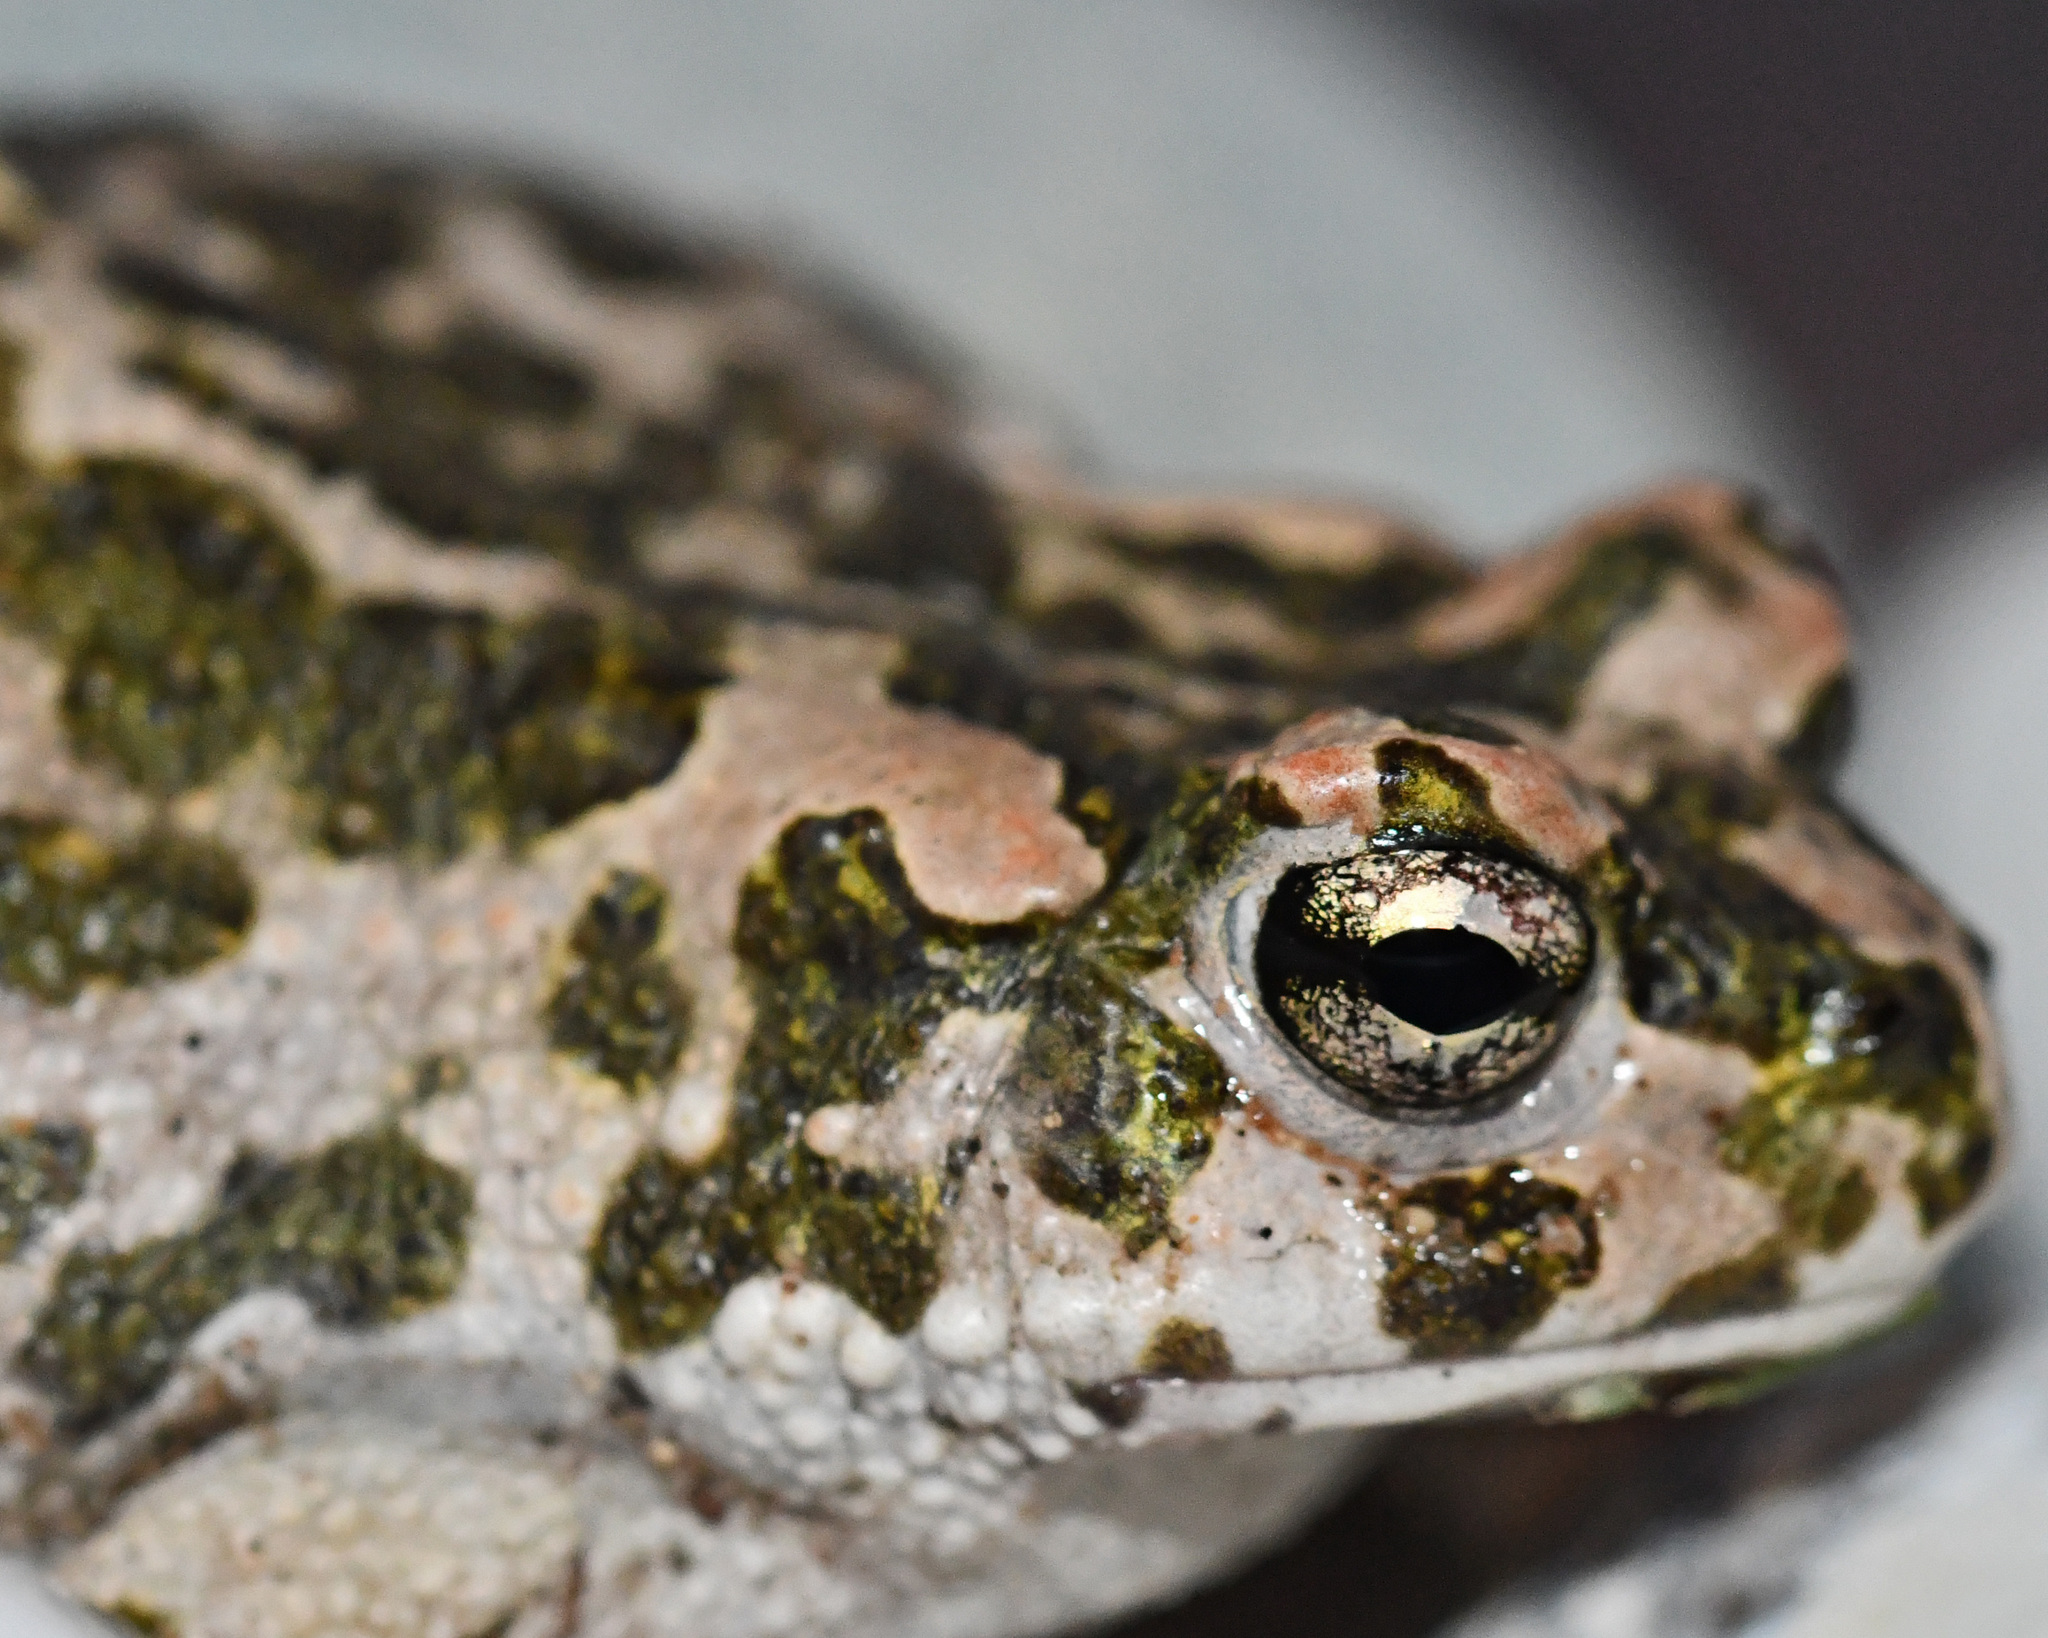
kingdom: Animalia
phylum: Chordata
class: Amphibia
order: Anura
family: Bufonidae
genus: Bufotes
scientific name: Bufotes cypriensis
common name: Cyprus green toad
